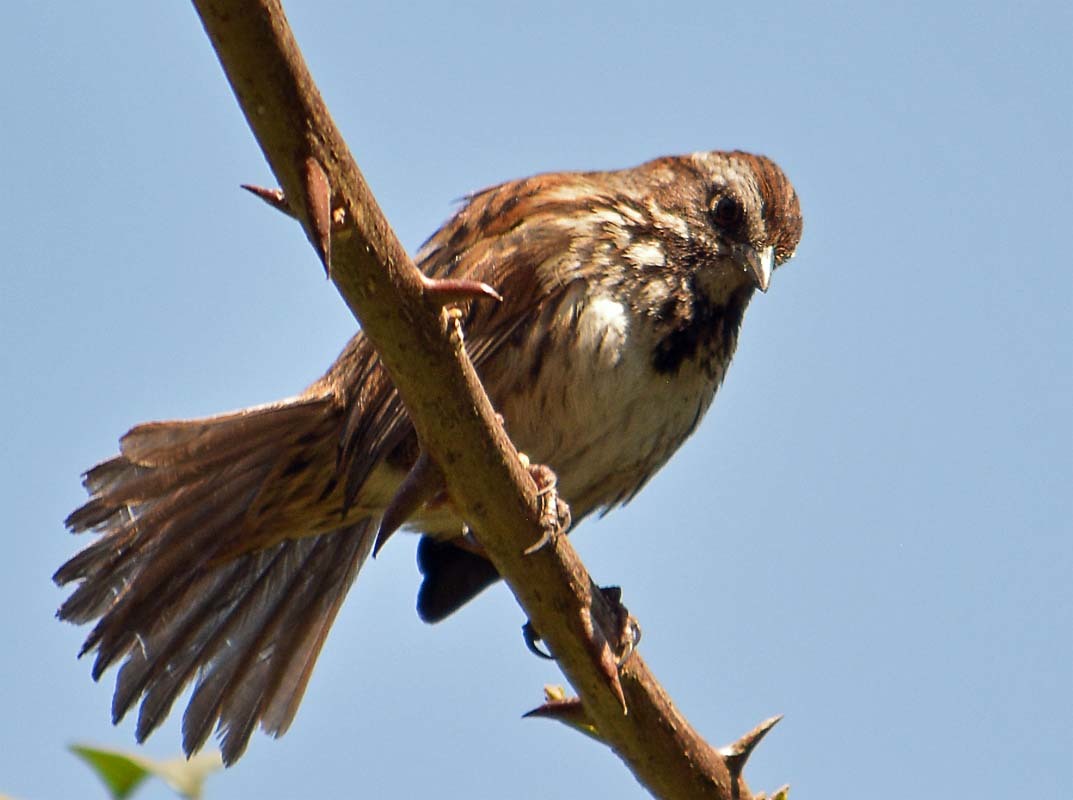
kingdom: Animalia
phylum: Chordata
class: Aves
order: Passeriformes
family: Passerellidae
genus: Melospiza
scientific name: Melospiza melodia
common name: Song sparrow
